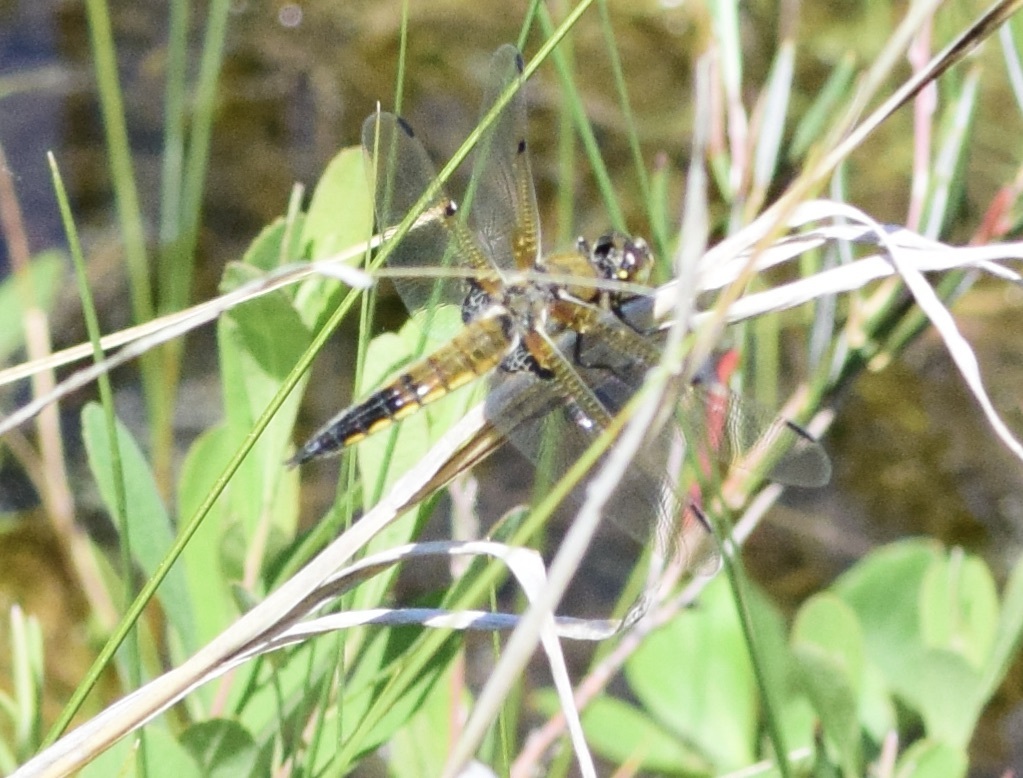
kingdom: Animalia
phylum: Arthropoda
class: Insecta
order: Odonata
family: Libellulidae
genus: Libellula
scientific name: Libellula quadrimaculata
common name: Four-spotted chaser
